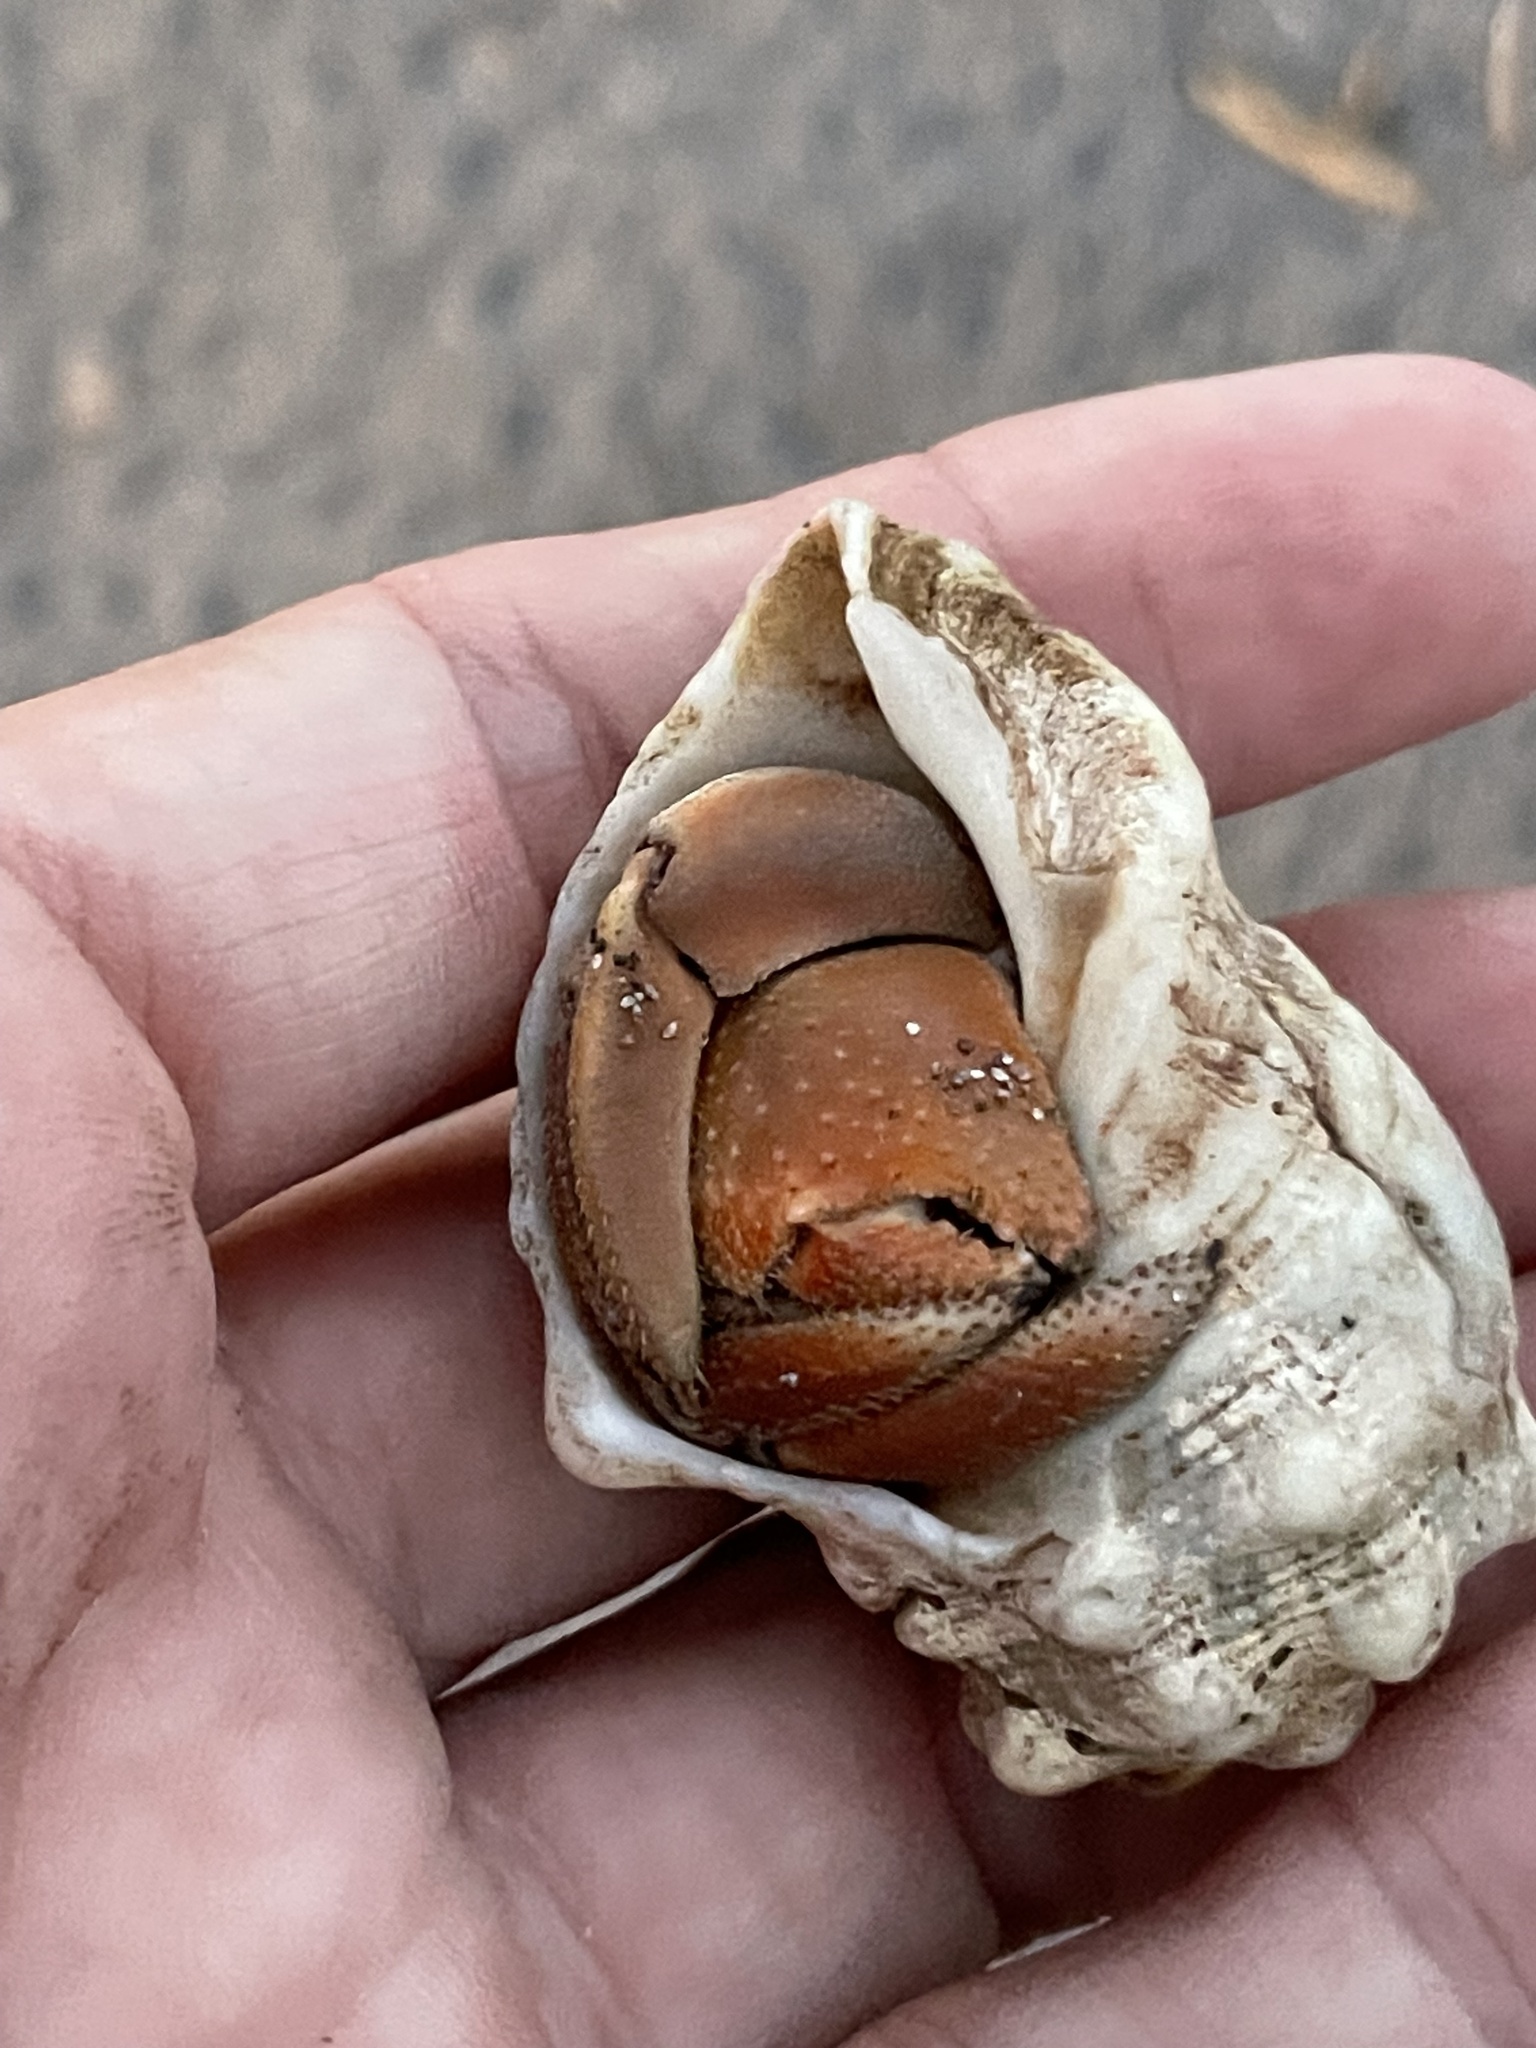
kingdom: Animalia
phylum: Arthropoda
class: Malacostraca
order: Decapoda
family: Coenobitidae
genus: Coenobita
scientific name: Coenobita compressus
